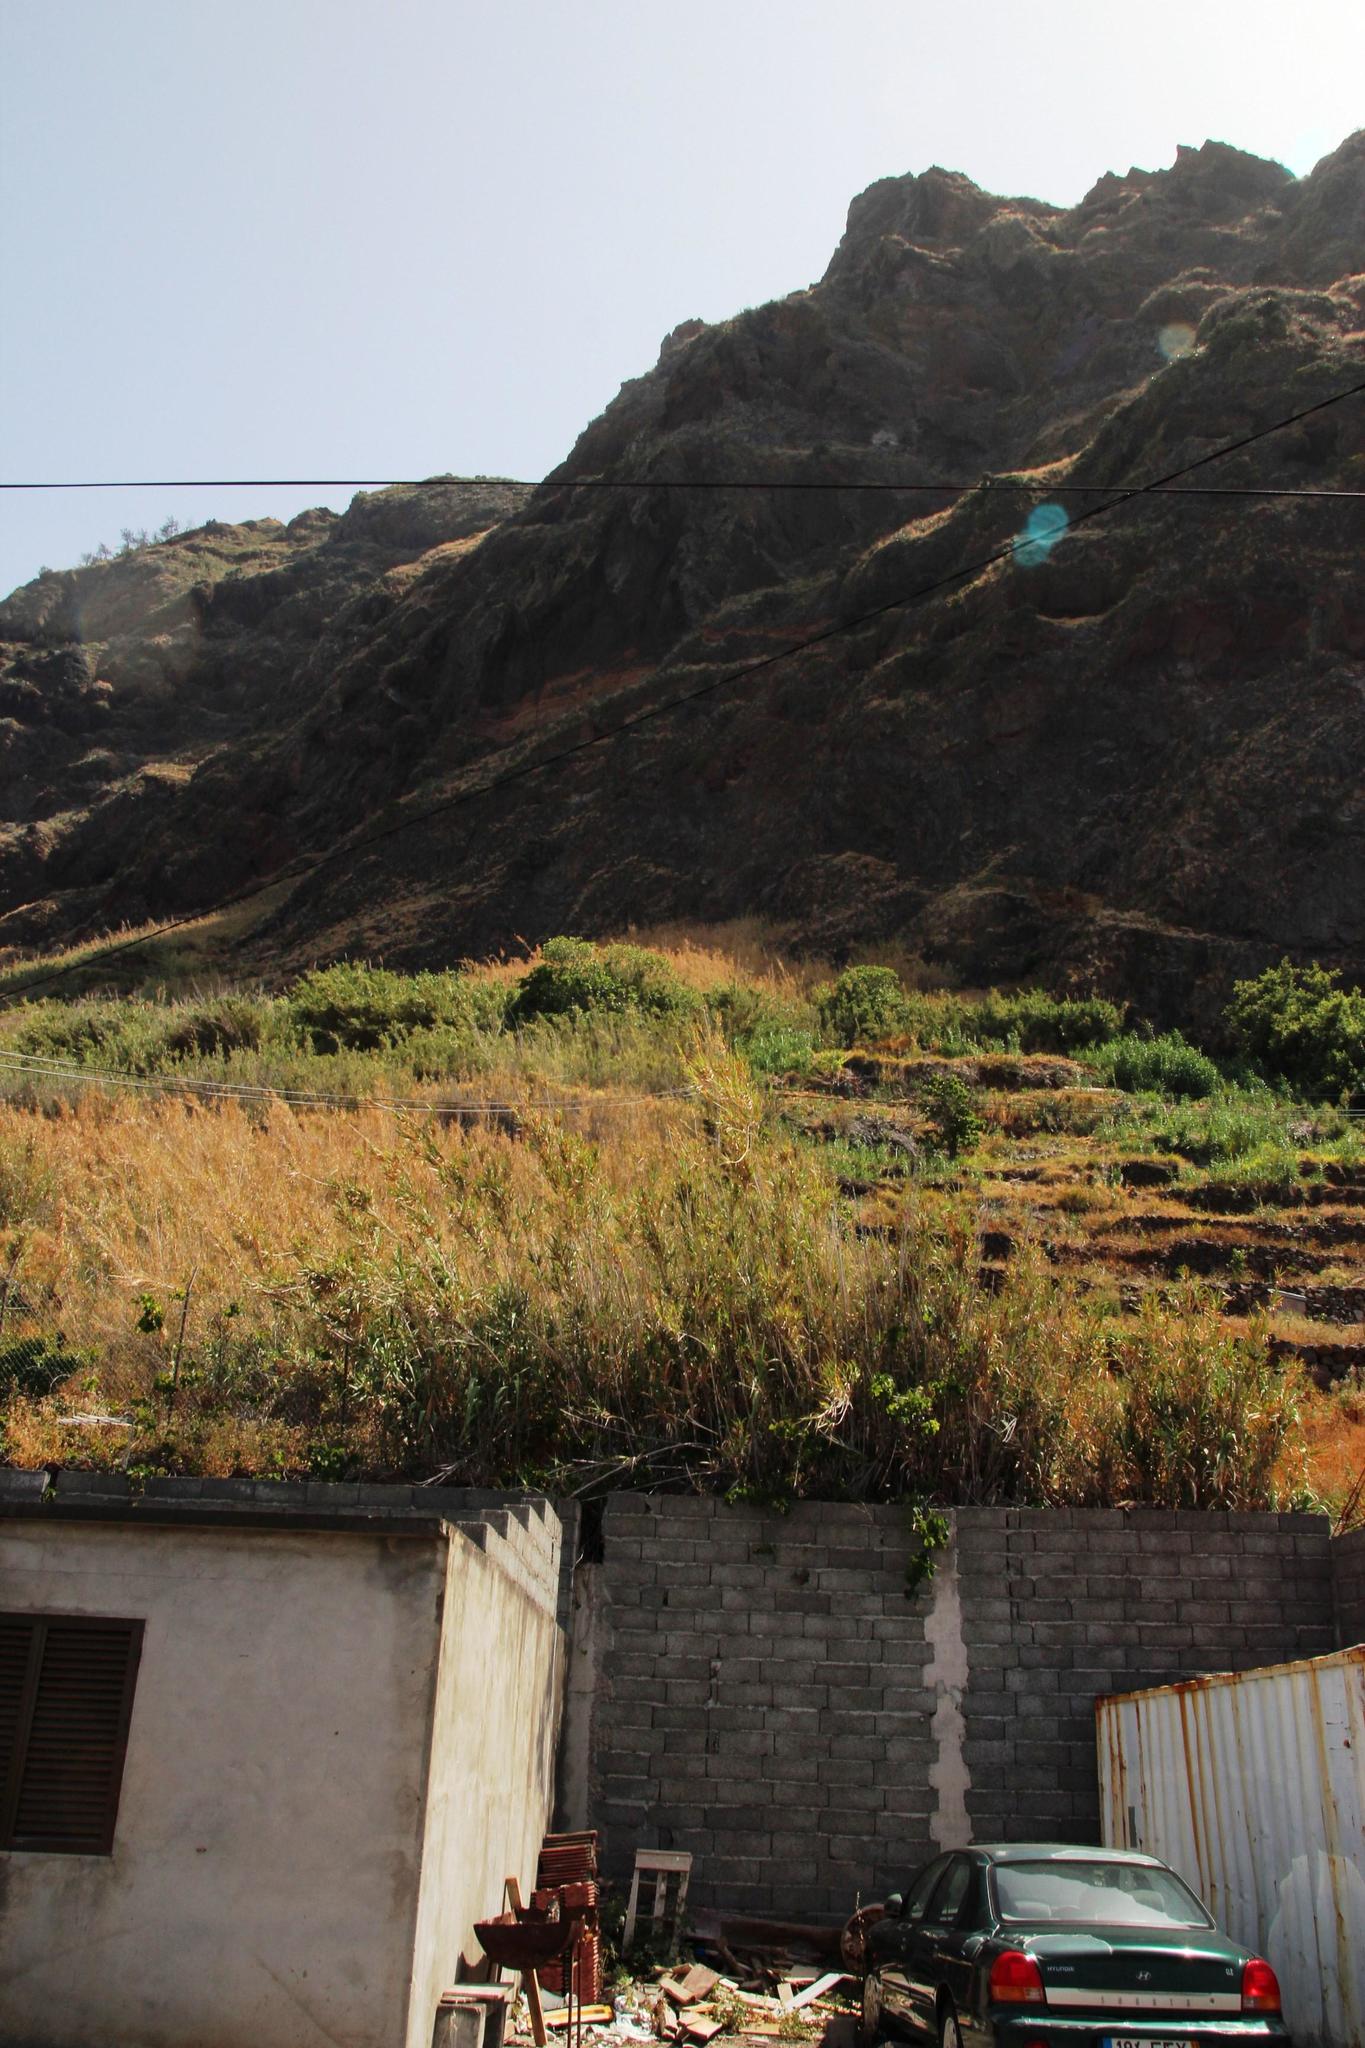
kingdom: Plantae
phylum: Tracheophyta
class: Liliopsida
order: Poales
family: Poaceae
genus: Arundo
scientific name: Arundo donax
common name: Giant reed
